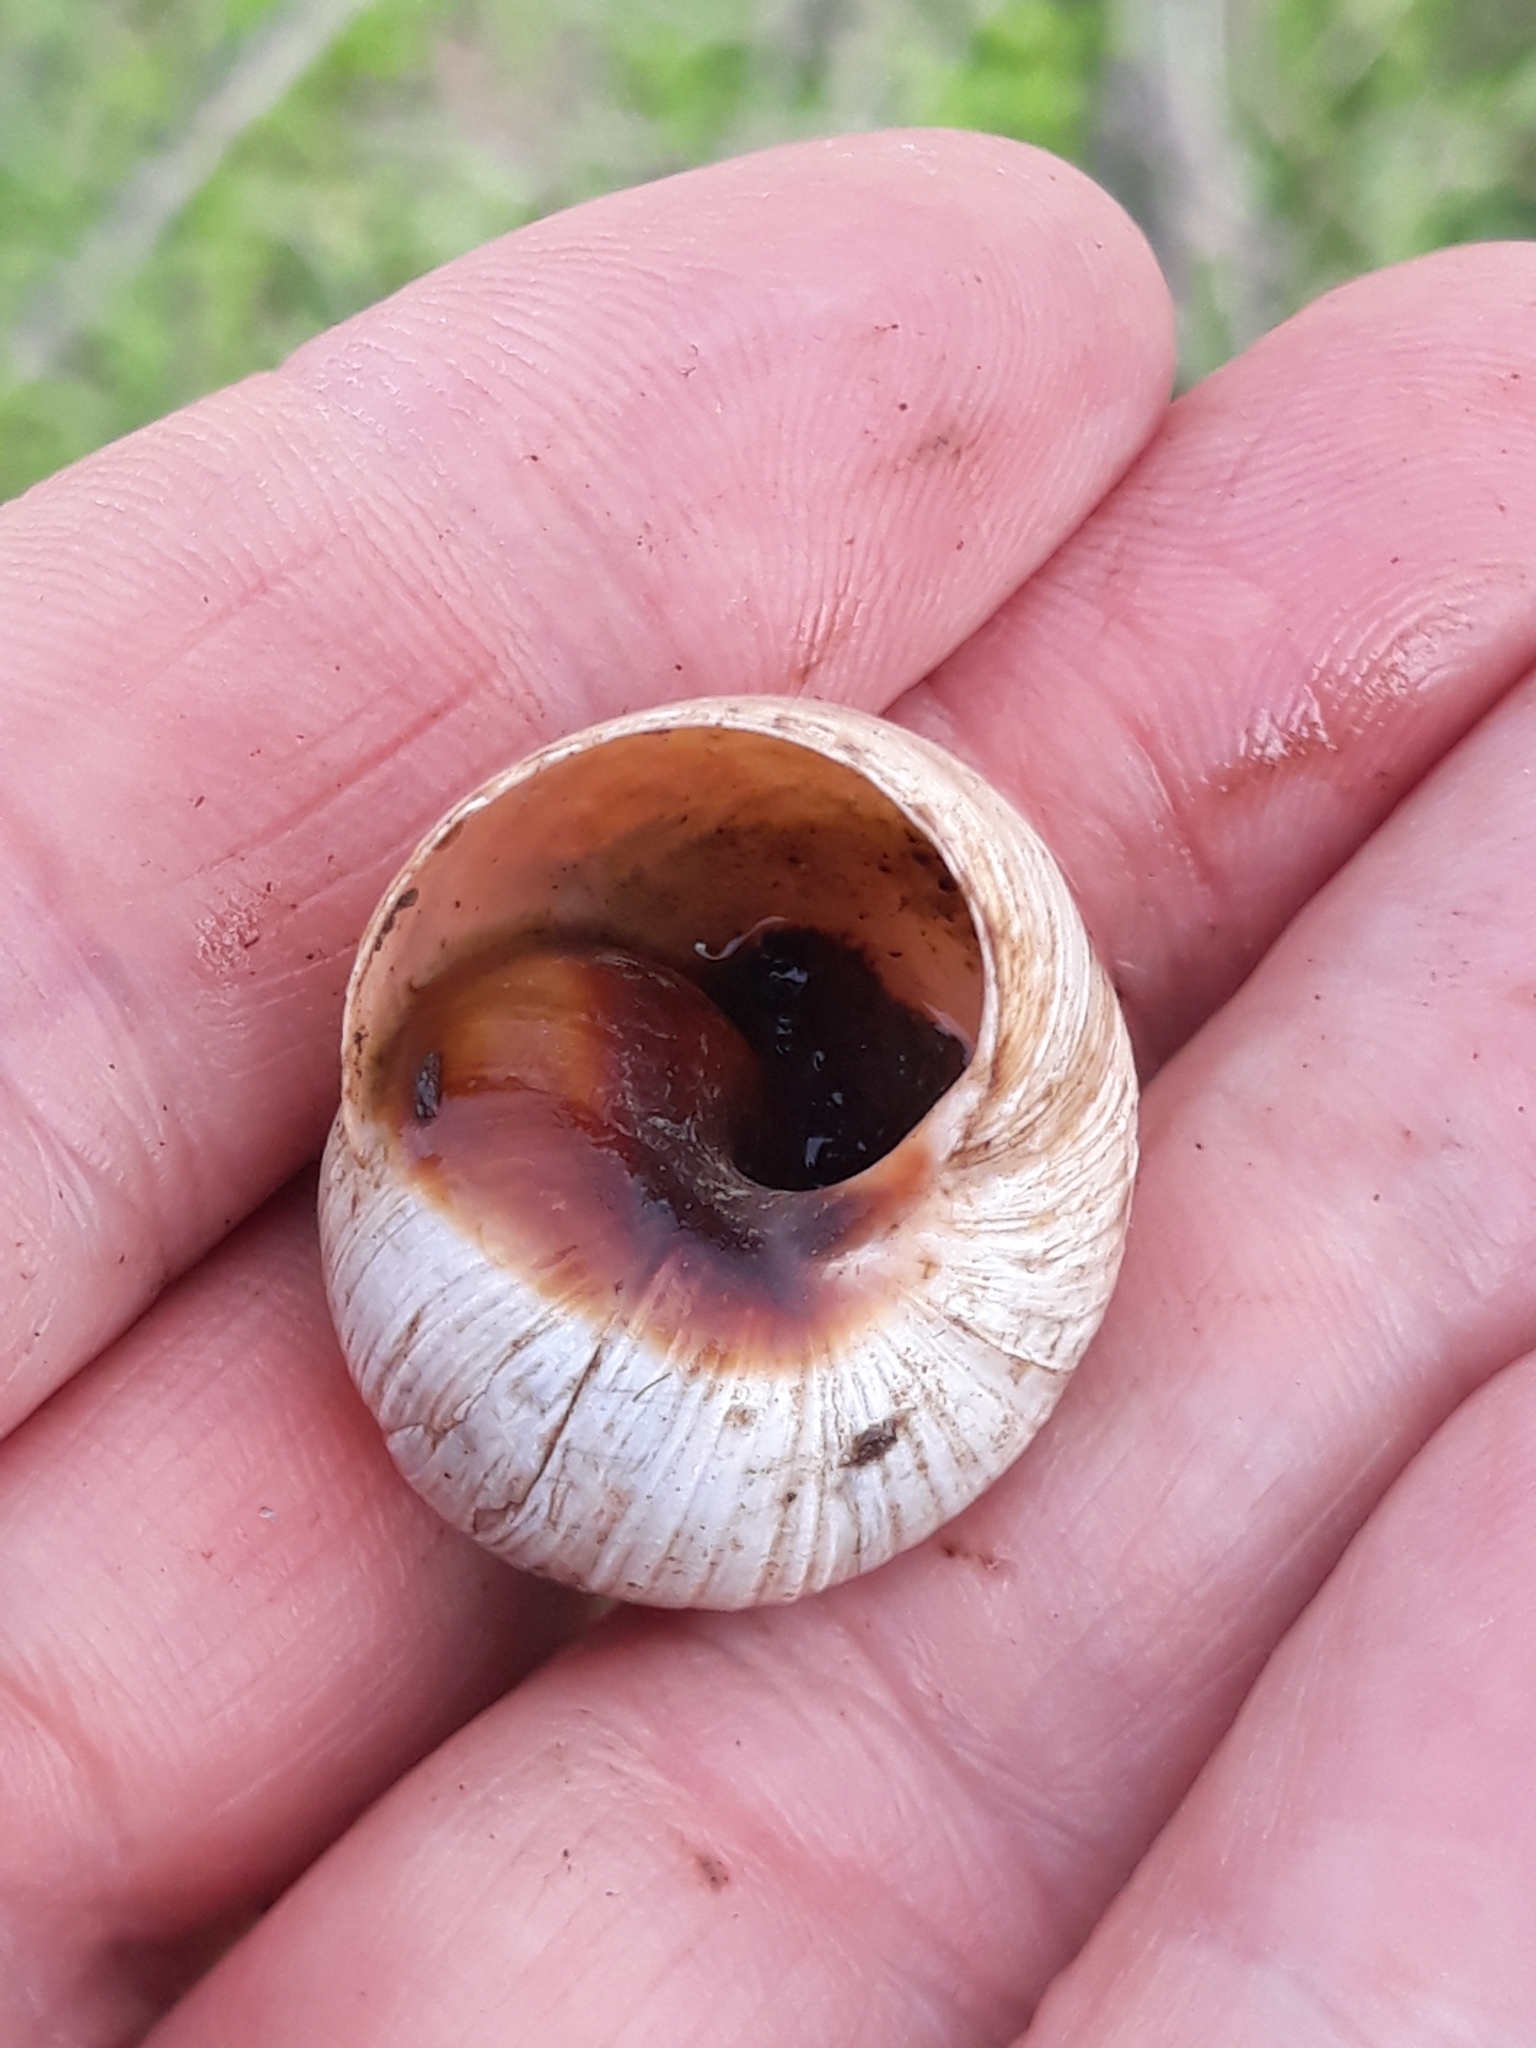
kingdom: Animalia
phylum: Mollusca
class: Gastropoda
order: Stylommatophora
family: Helicidae
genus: Helix
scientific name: Helix melanostoma
